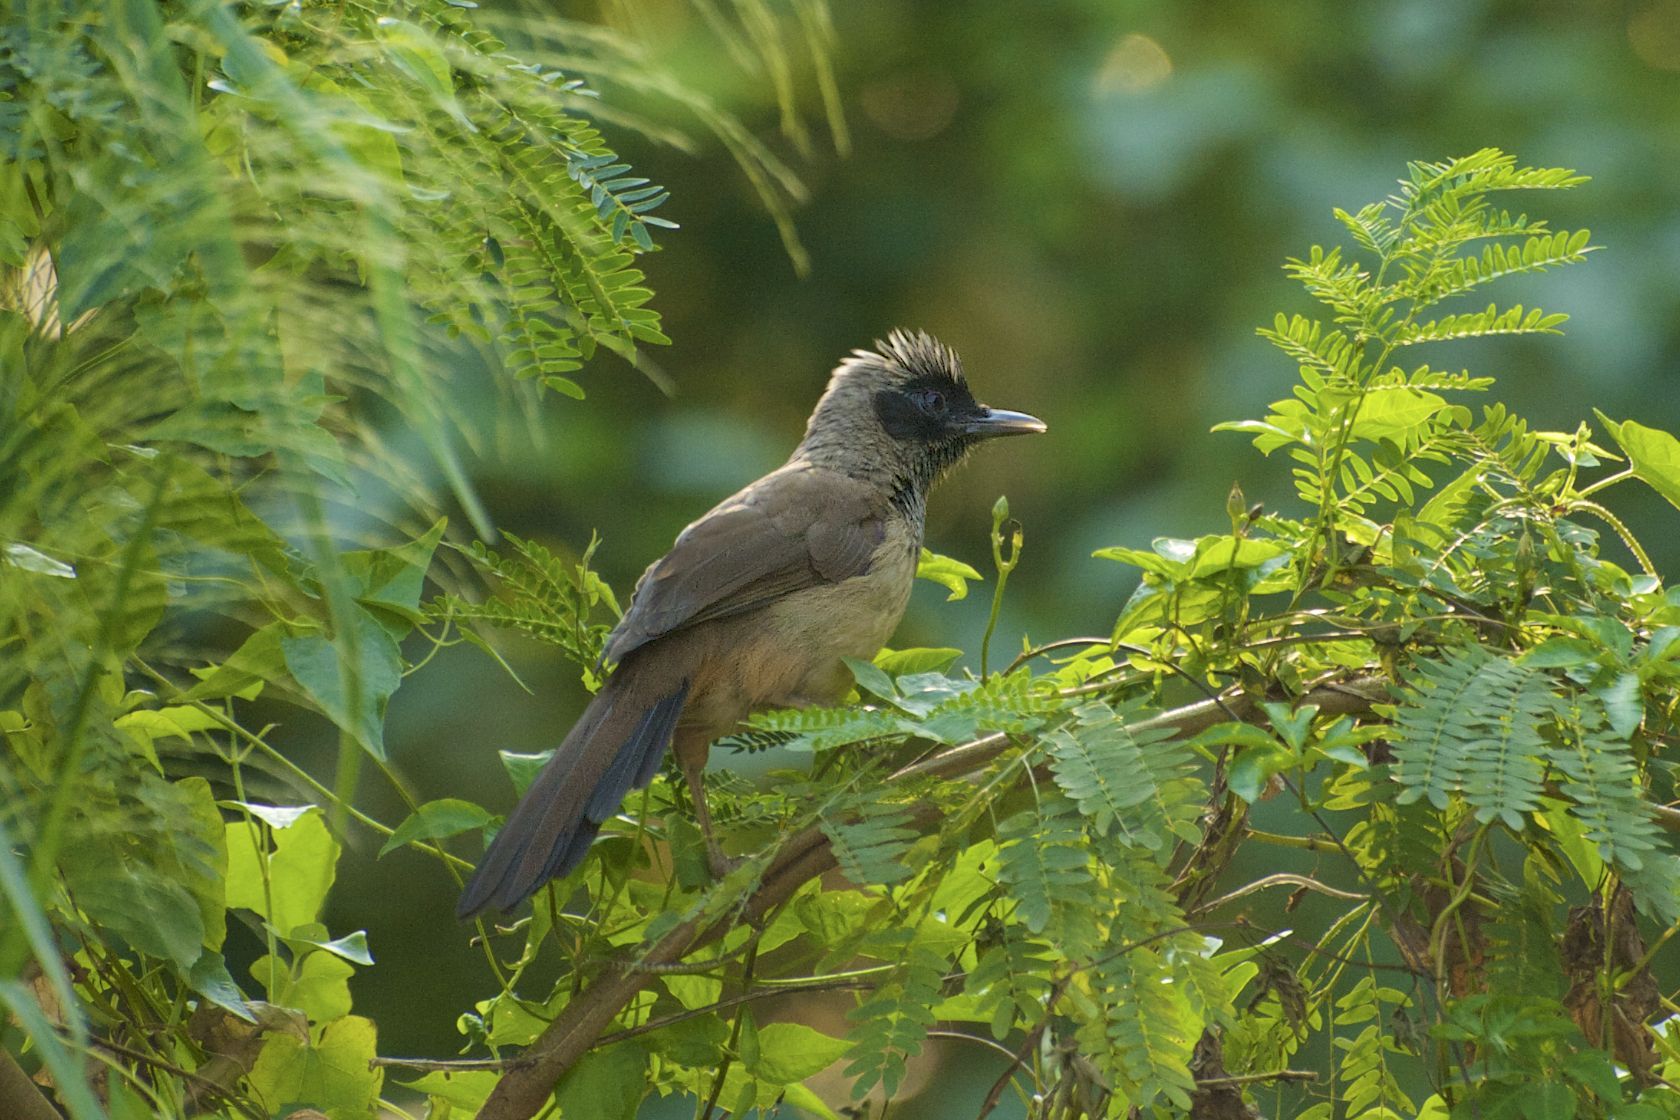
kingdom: Animalia
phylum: Chordata
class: Aves
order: Passeriformes
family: Leiothrichidae
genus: Garrulax
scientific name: Garrulax perspicillatus
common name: Masked laughingthrush
